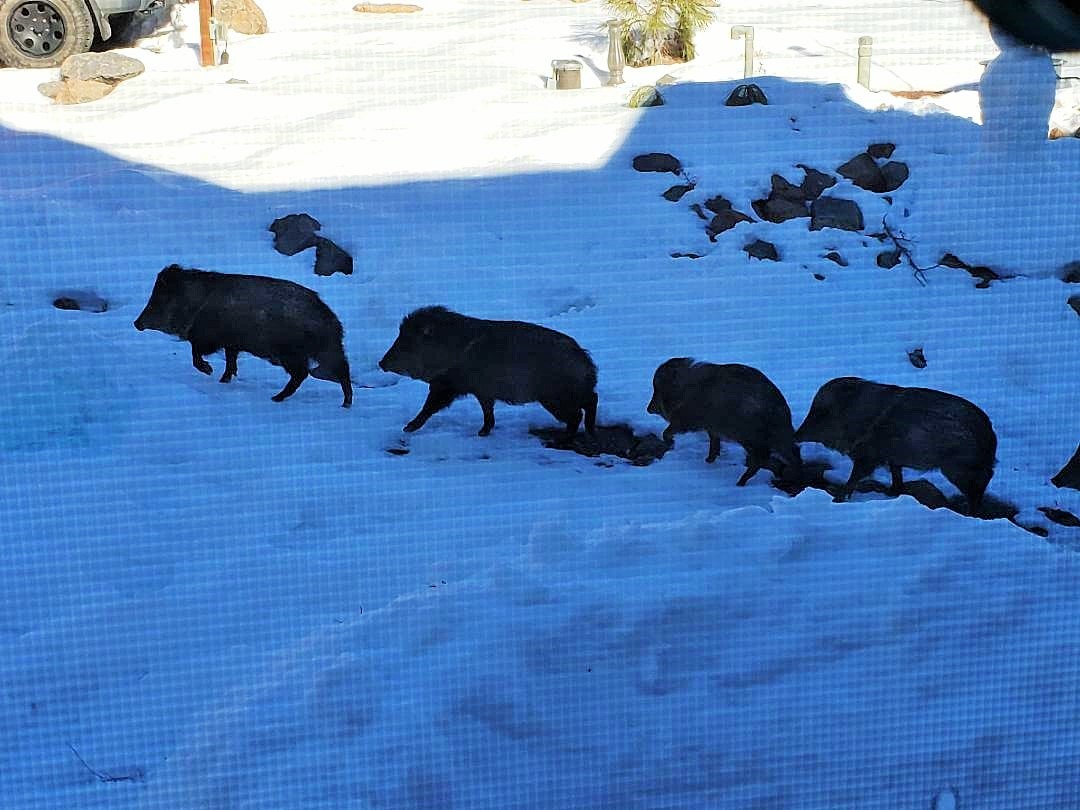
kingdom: Animalia
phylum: Chordata
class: Mammalia
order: Artiodactyla
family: Tayassuidae
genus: Pecari
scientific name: Pecari tajacu
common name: Collared peccary
